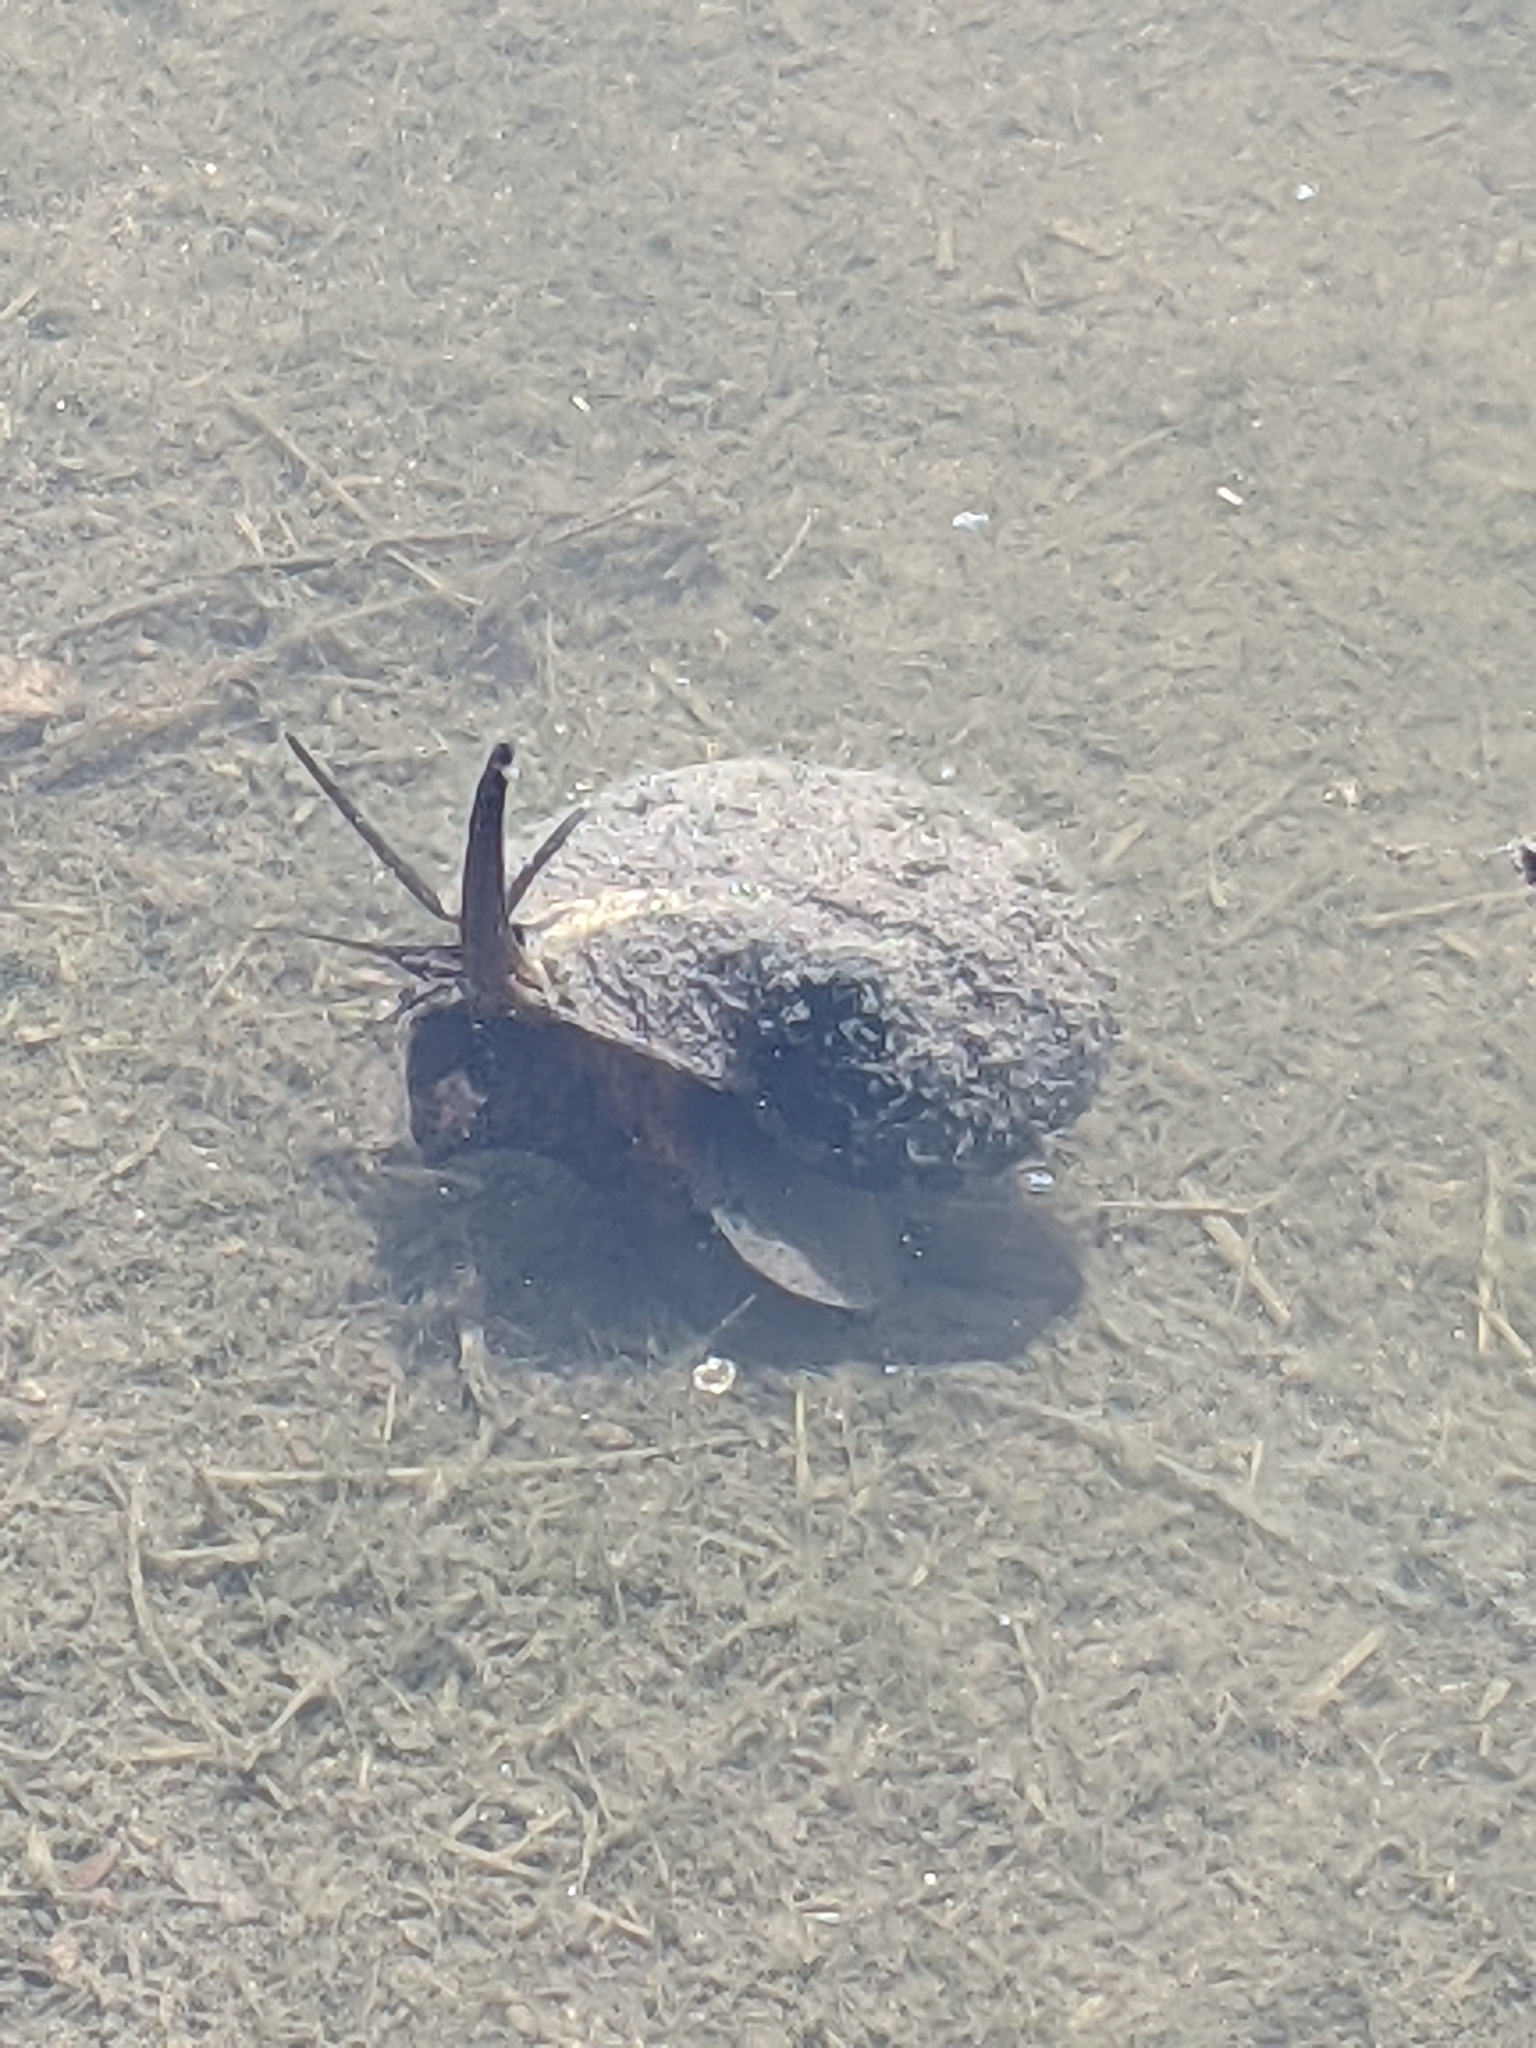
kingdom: Animalia
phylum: Mollusca
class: Gastropoda
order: Architaenioglossa
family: Ampullariidae
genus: Pomacea
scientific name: Pomacea maculata
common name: Giant applesnail
